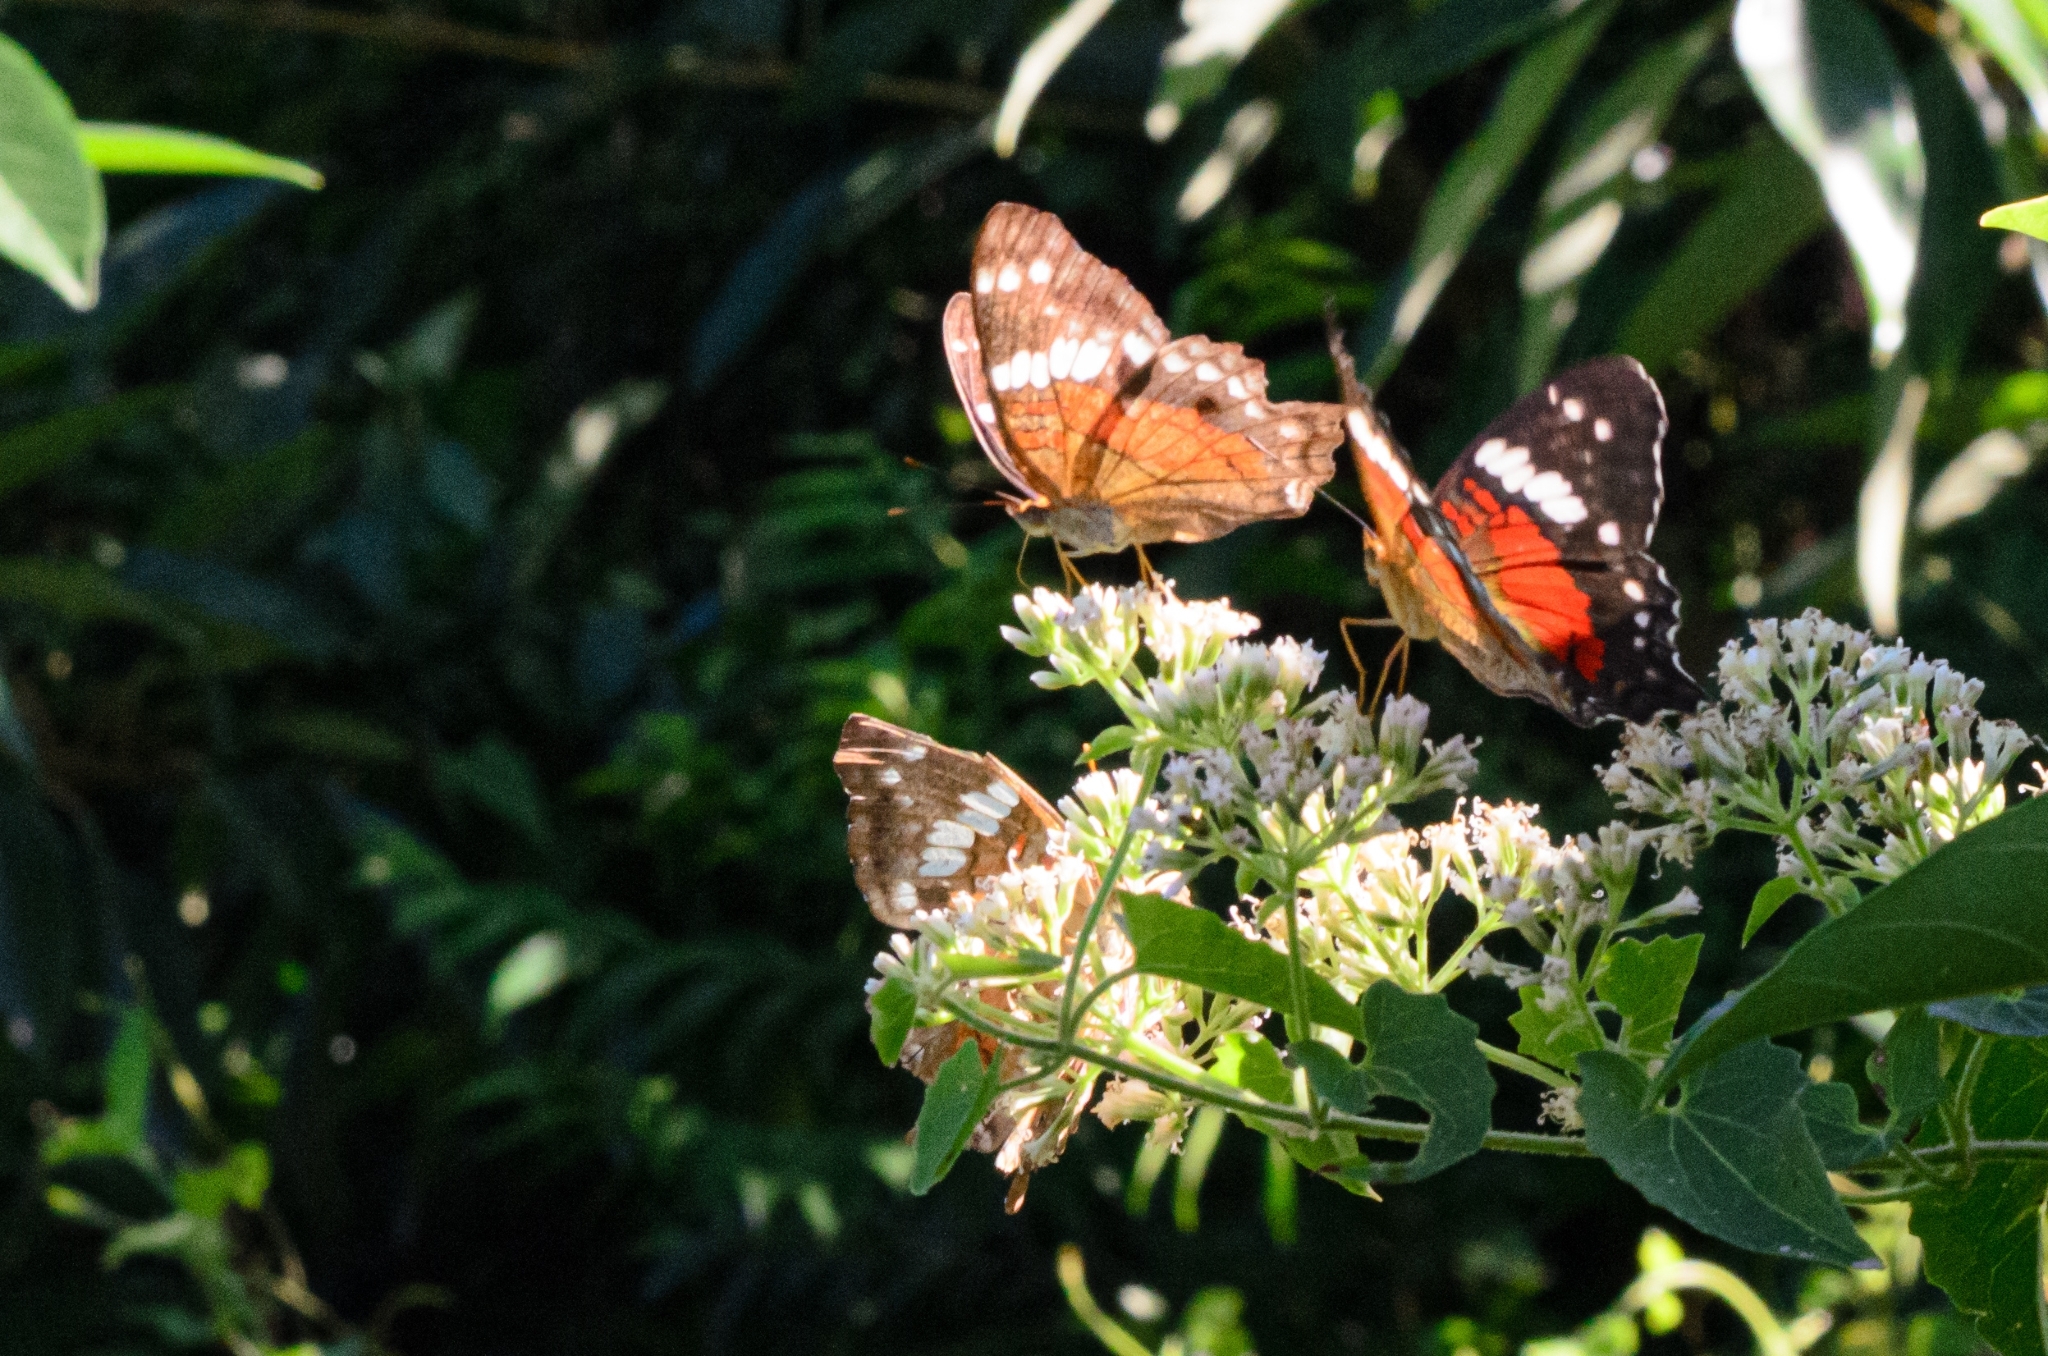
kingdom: Animalia
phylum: Arthropoda
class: Insecta
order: Lepidoptera
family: Nymphalidae
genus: Anartia
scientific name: Anartia amathea
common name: Red peacock
